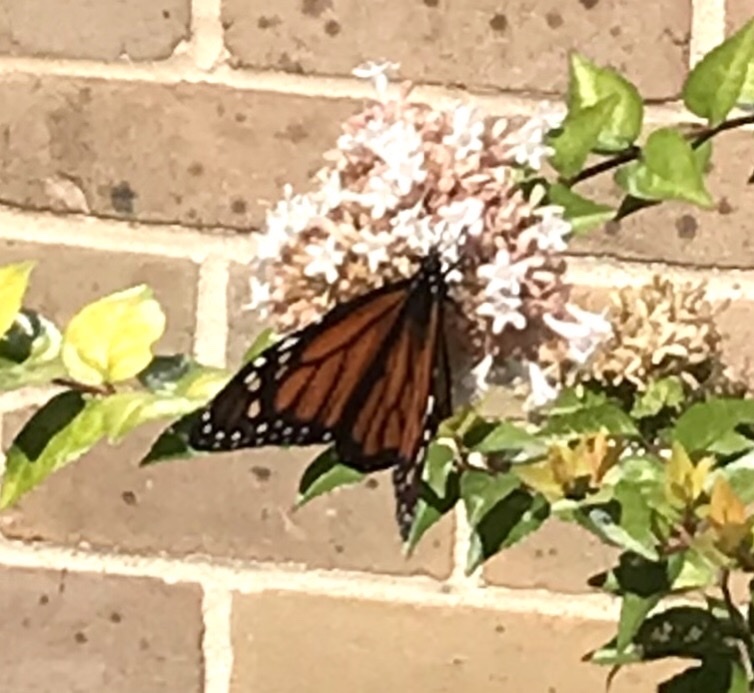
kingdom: Animalia
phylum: Arthropoda
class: Insecta
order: Lepidoptera
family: Nymphalidae
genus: Danaus
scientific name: Danaus plexippus
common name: Monarch
